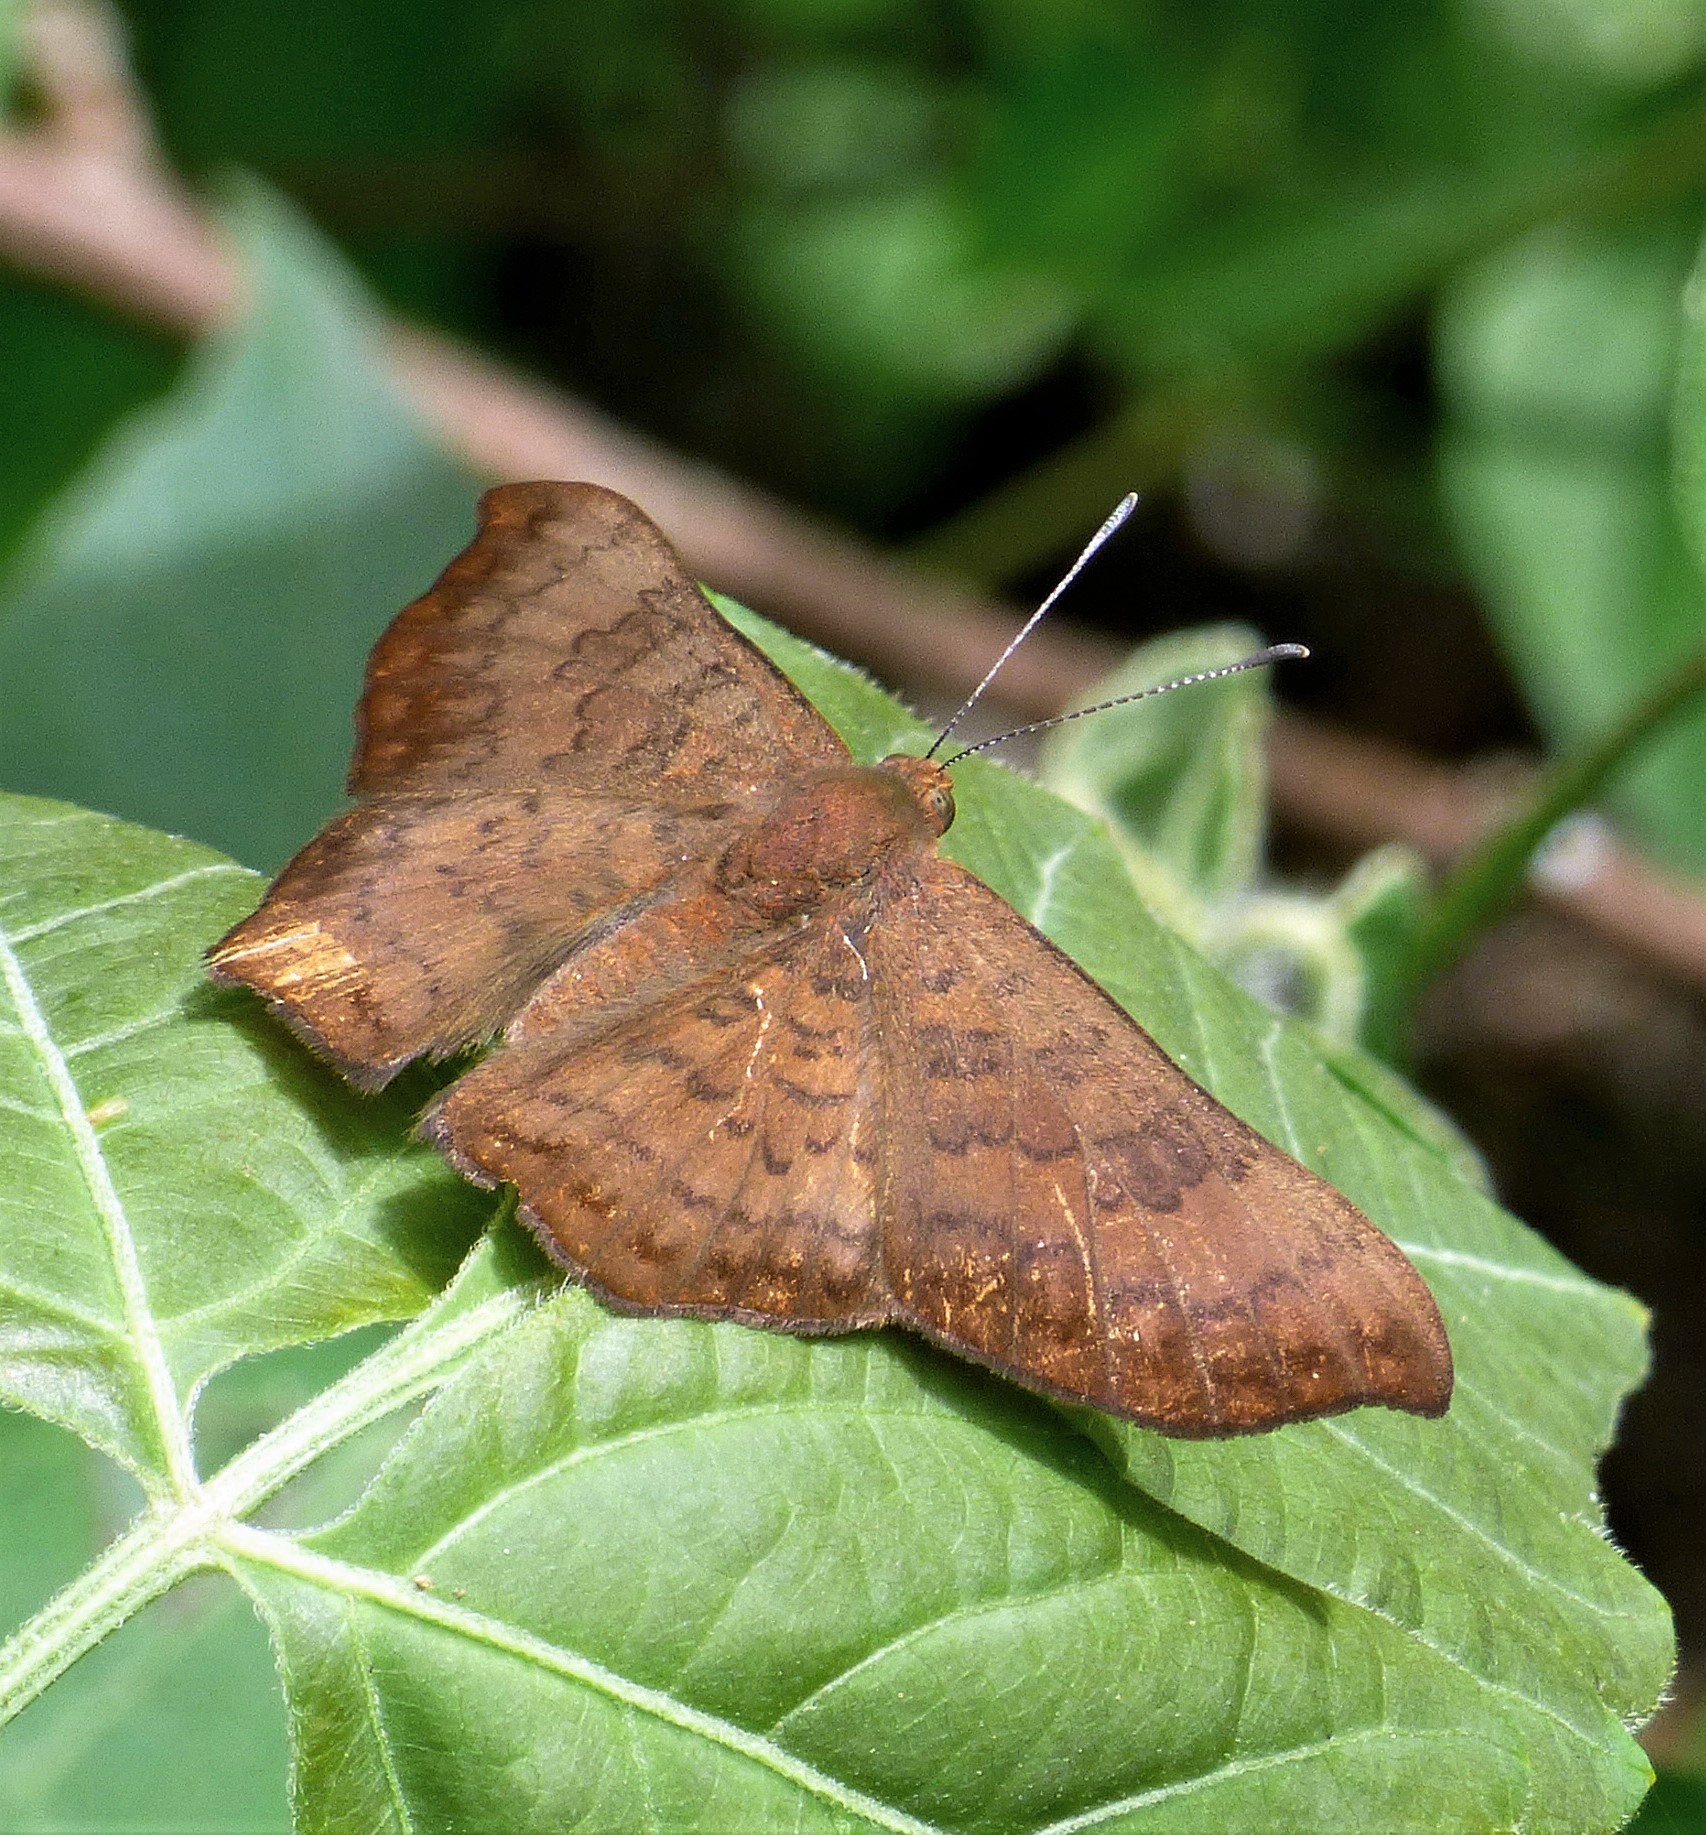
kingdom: Animalia
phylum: Arthropoda
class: Insecta
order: Lepidoptera
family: Lycaenidae
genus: Emesis
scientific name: Emesis angularis
